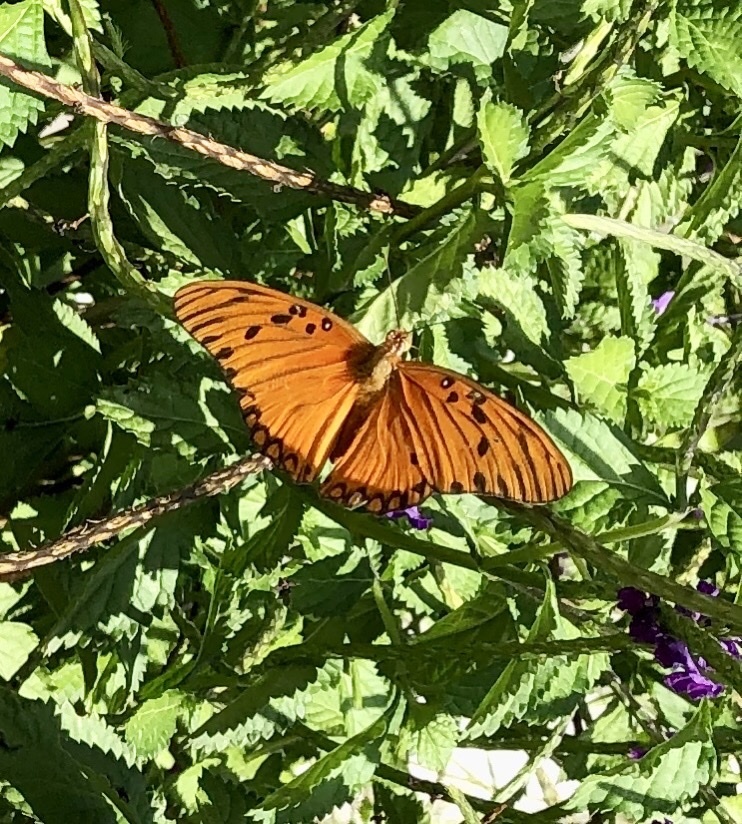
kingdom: Animalia
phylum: Arthropoda
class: Insecta
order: Lepidoptera
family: Nymphalidae
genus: Dione
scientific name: Dione vanillae
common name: Gulf fritillary
